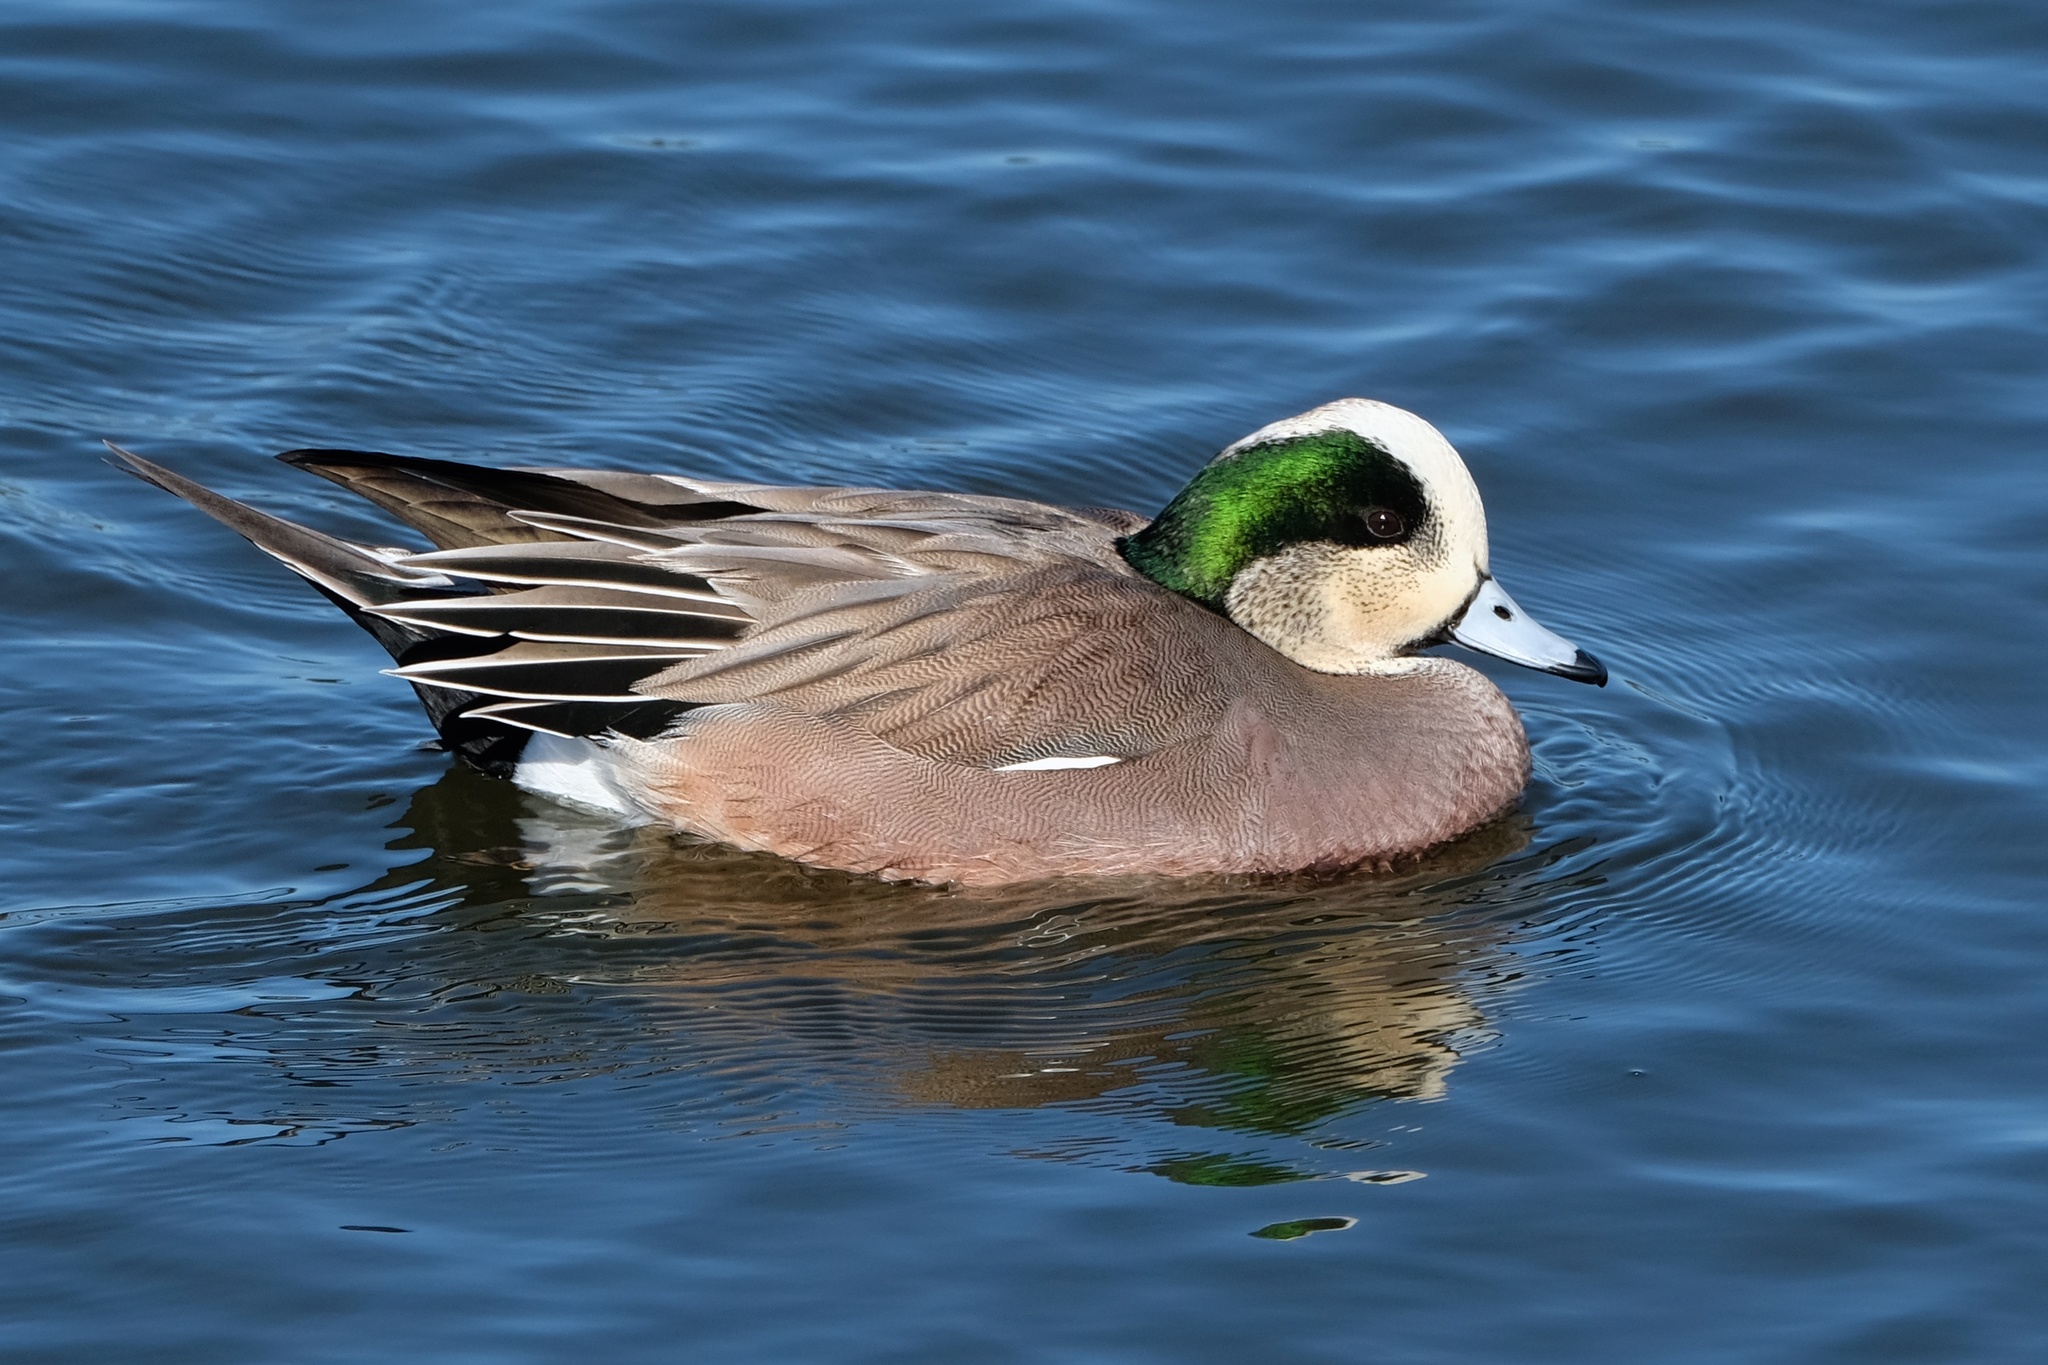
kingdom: Animalia
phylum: Chordata
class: Aves
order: Anseriformes
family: Anatidae
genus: Mareca
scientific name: Mareca americana
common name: American wigeon
